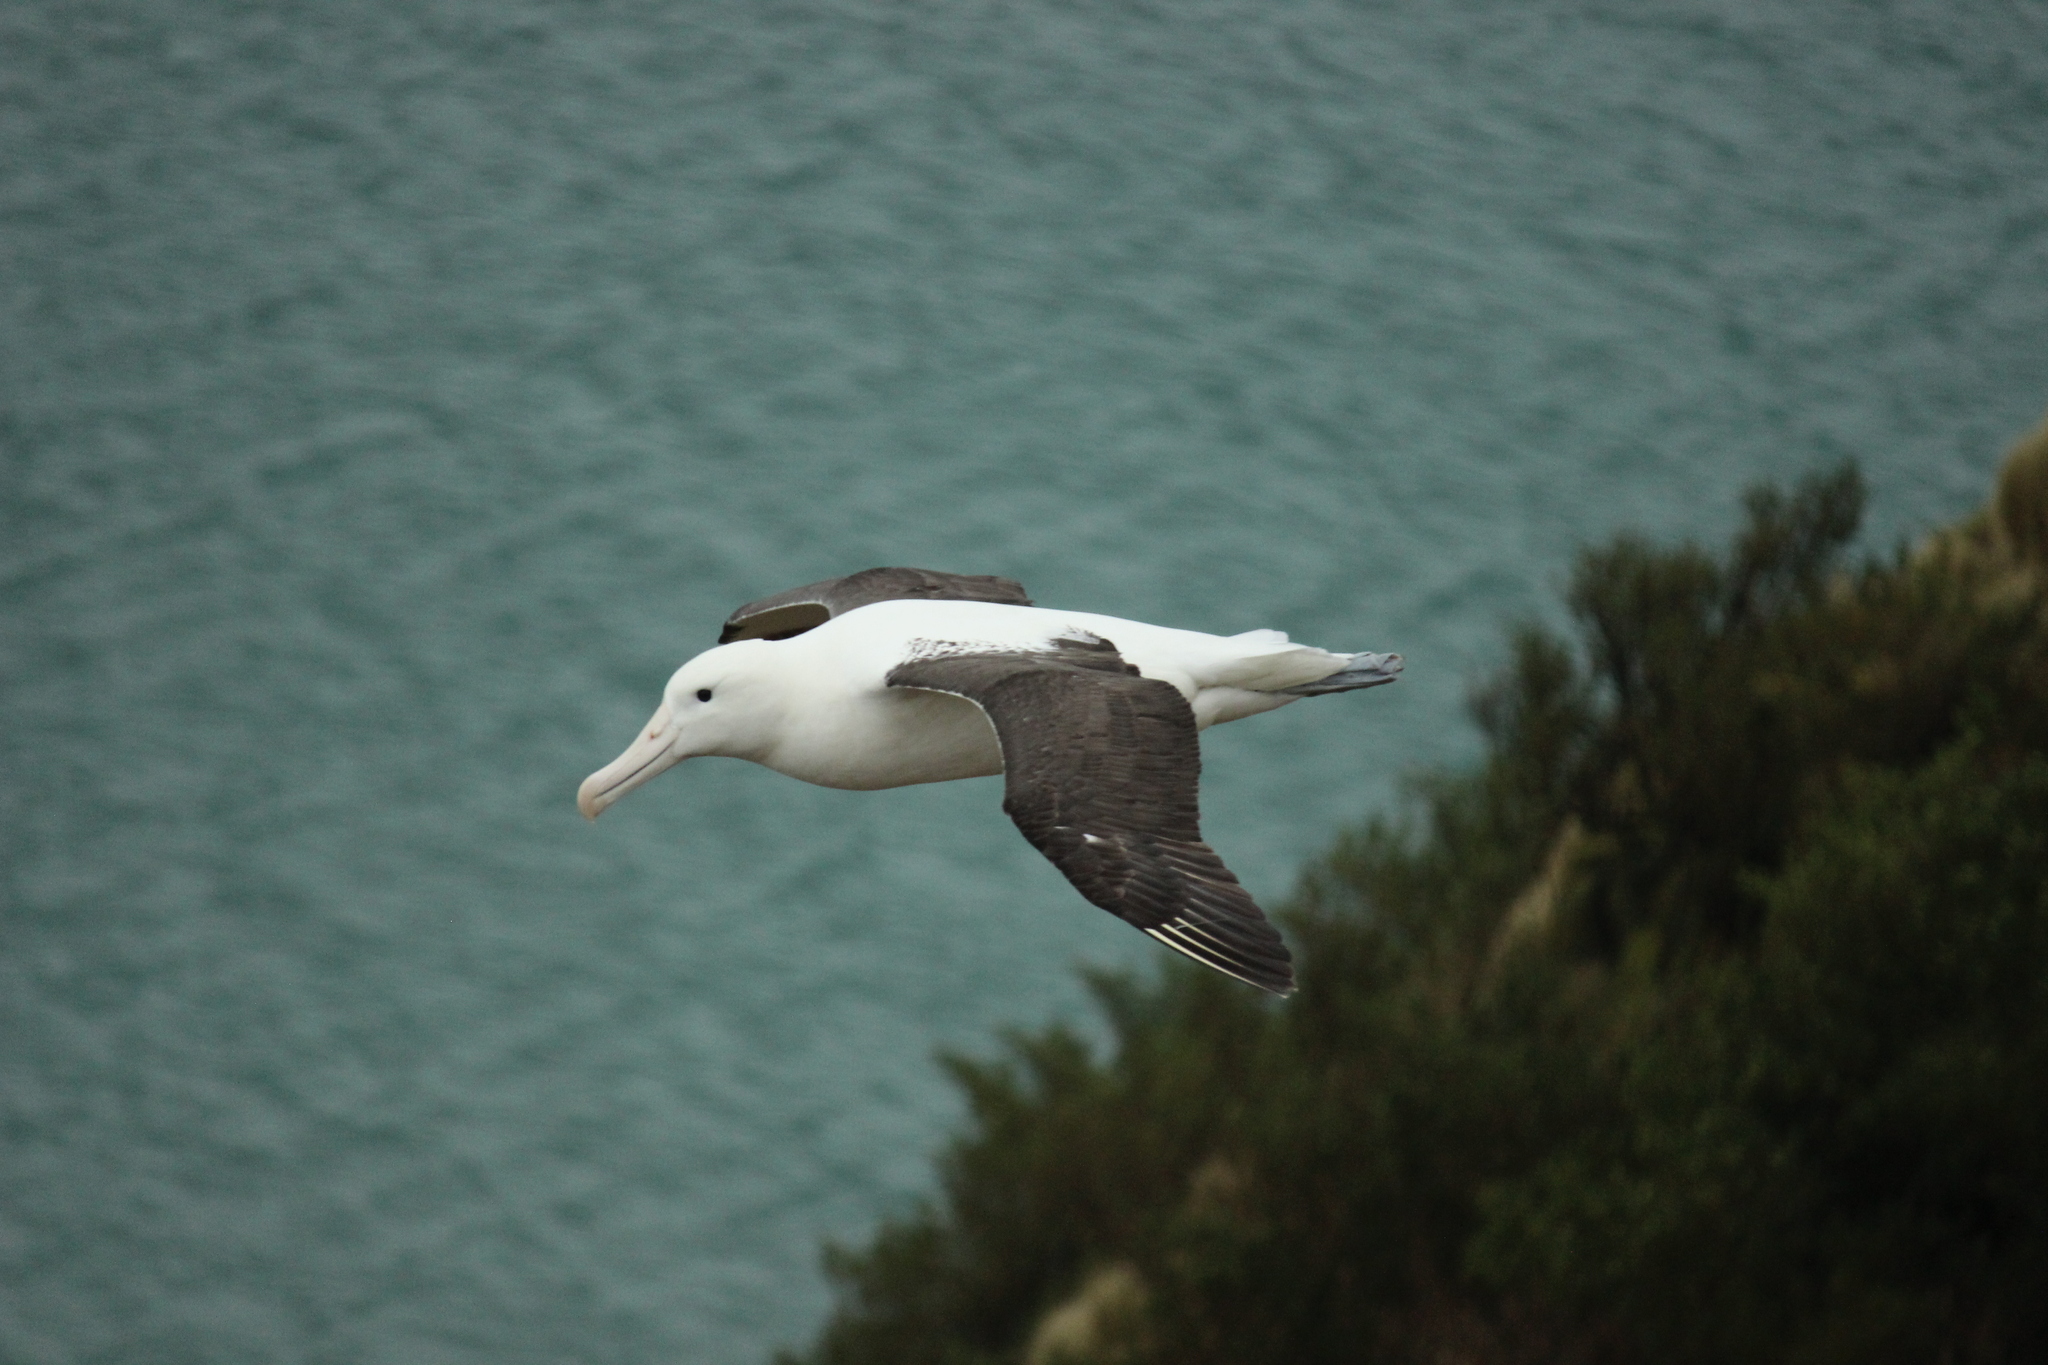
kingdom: Animalia
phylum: Chordata
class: Aves
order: Procellariiformes
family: Diomedeidae
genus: Diomedea
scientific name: Diomedea sanfordi
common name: Northern royal albatross
